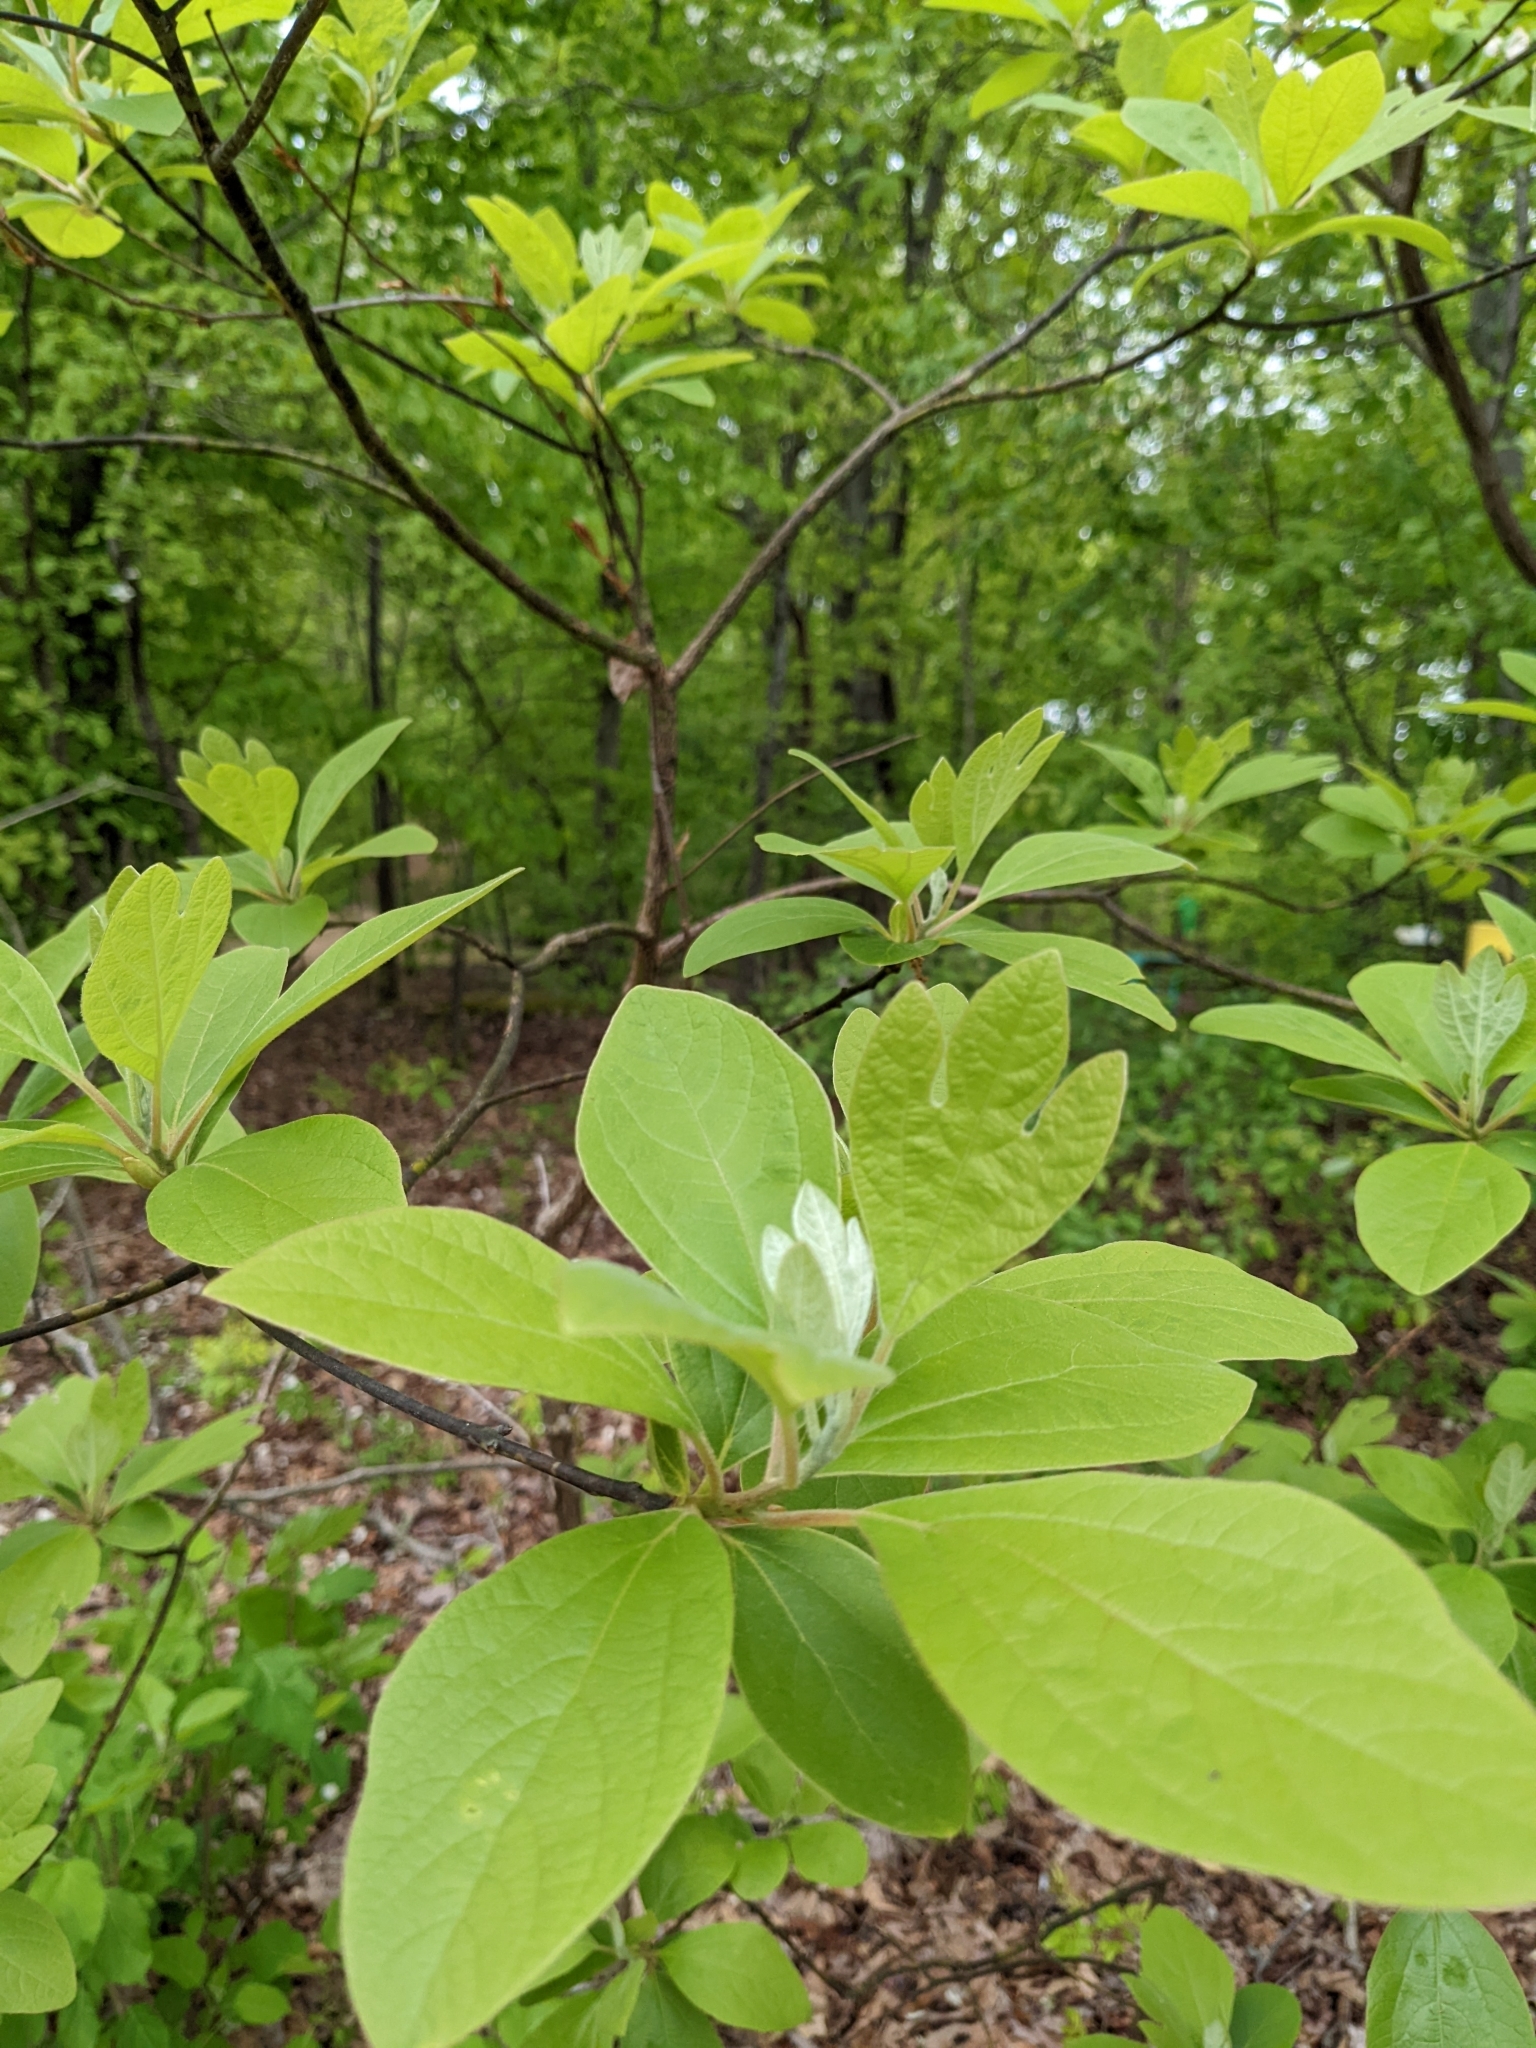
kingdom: Plantae
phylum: Tracheophyta
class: Magnoliopsida
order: Laurales
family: Lauraceae
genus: Sassafras
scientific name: Sassafras albidum
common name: Sassafras
